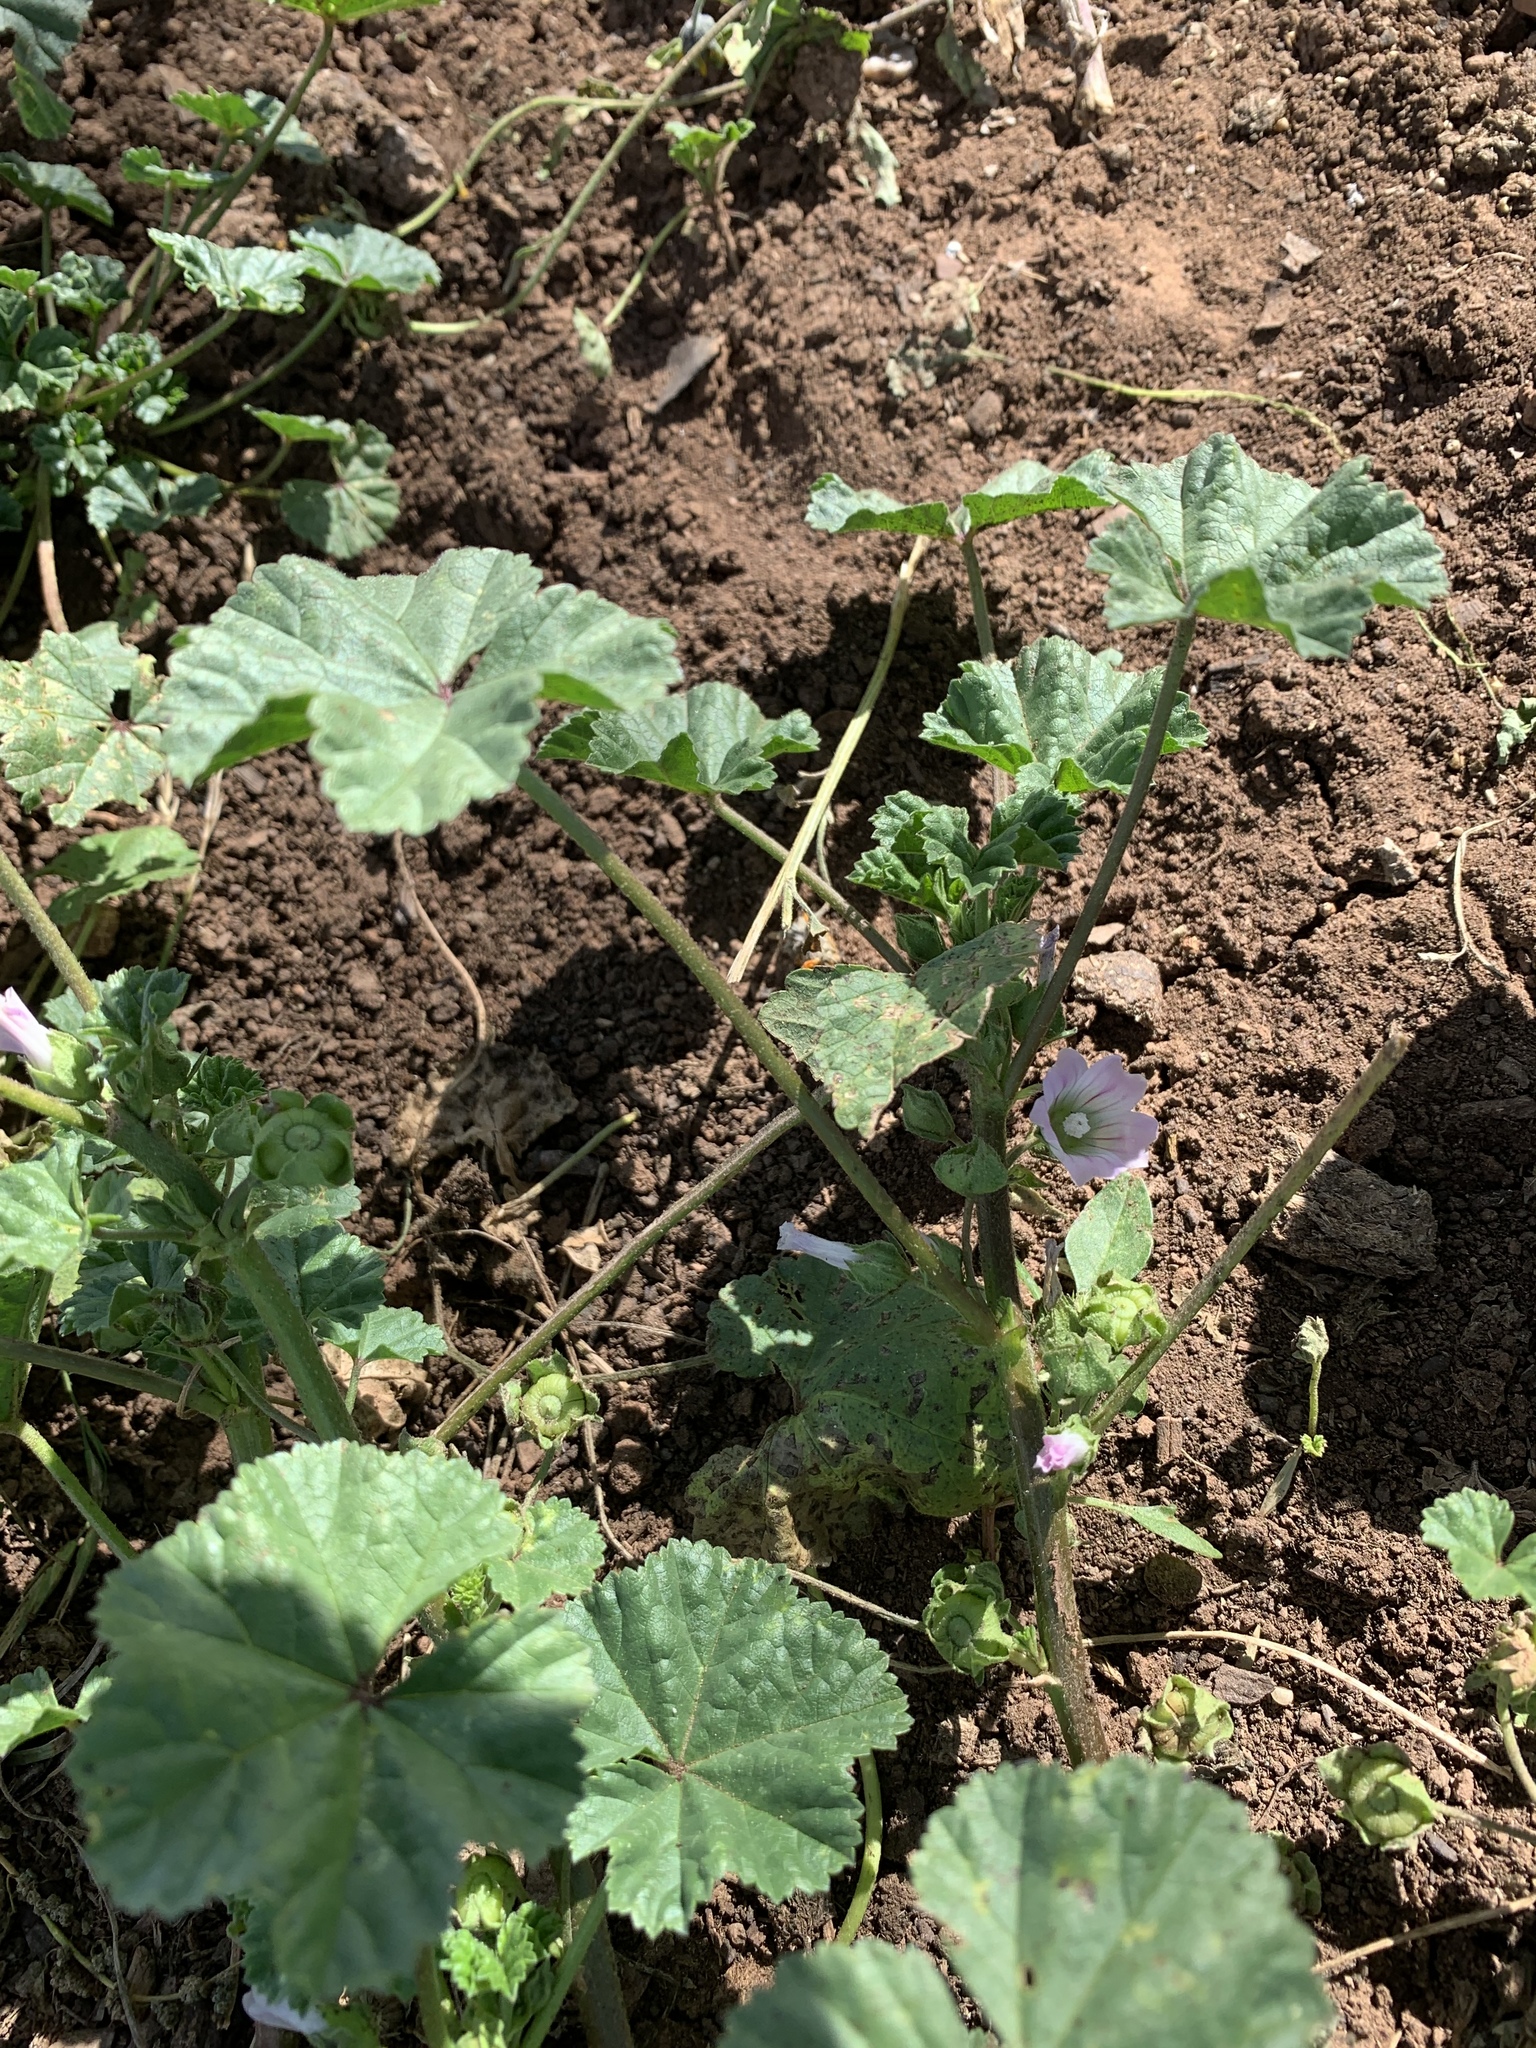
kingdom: Plantae
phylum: Tracheophyta
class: Magnoliopsida
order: Malvales
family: Malvaceae
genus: Malva
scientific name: Malva neglecta
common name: Common mallow
